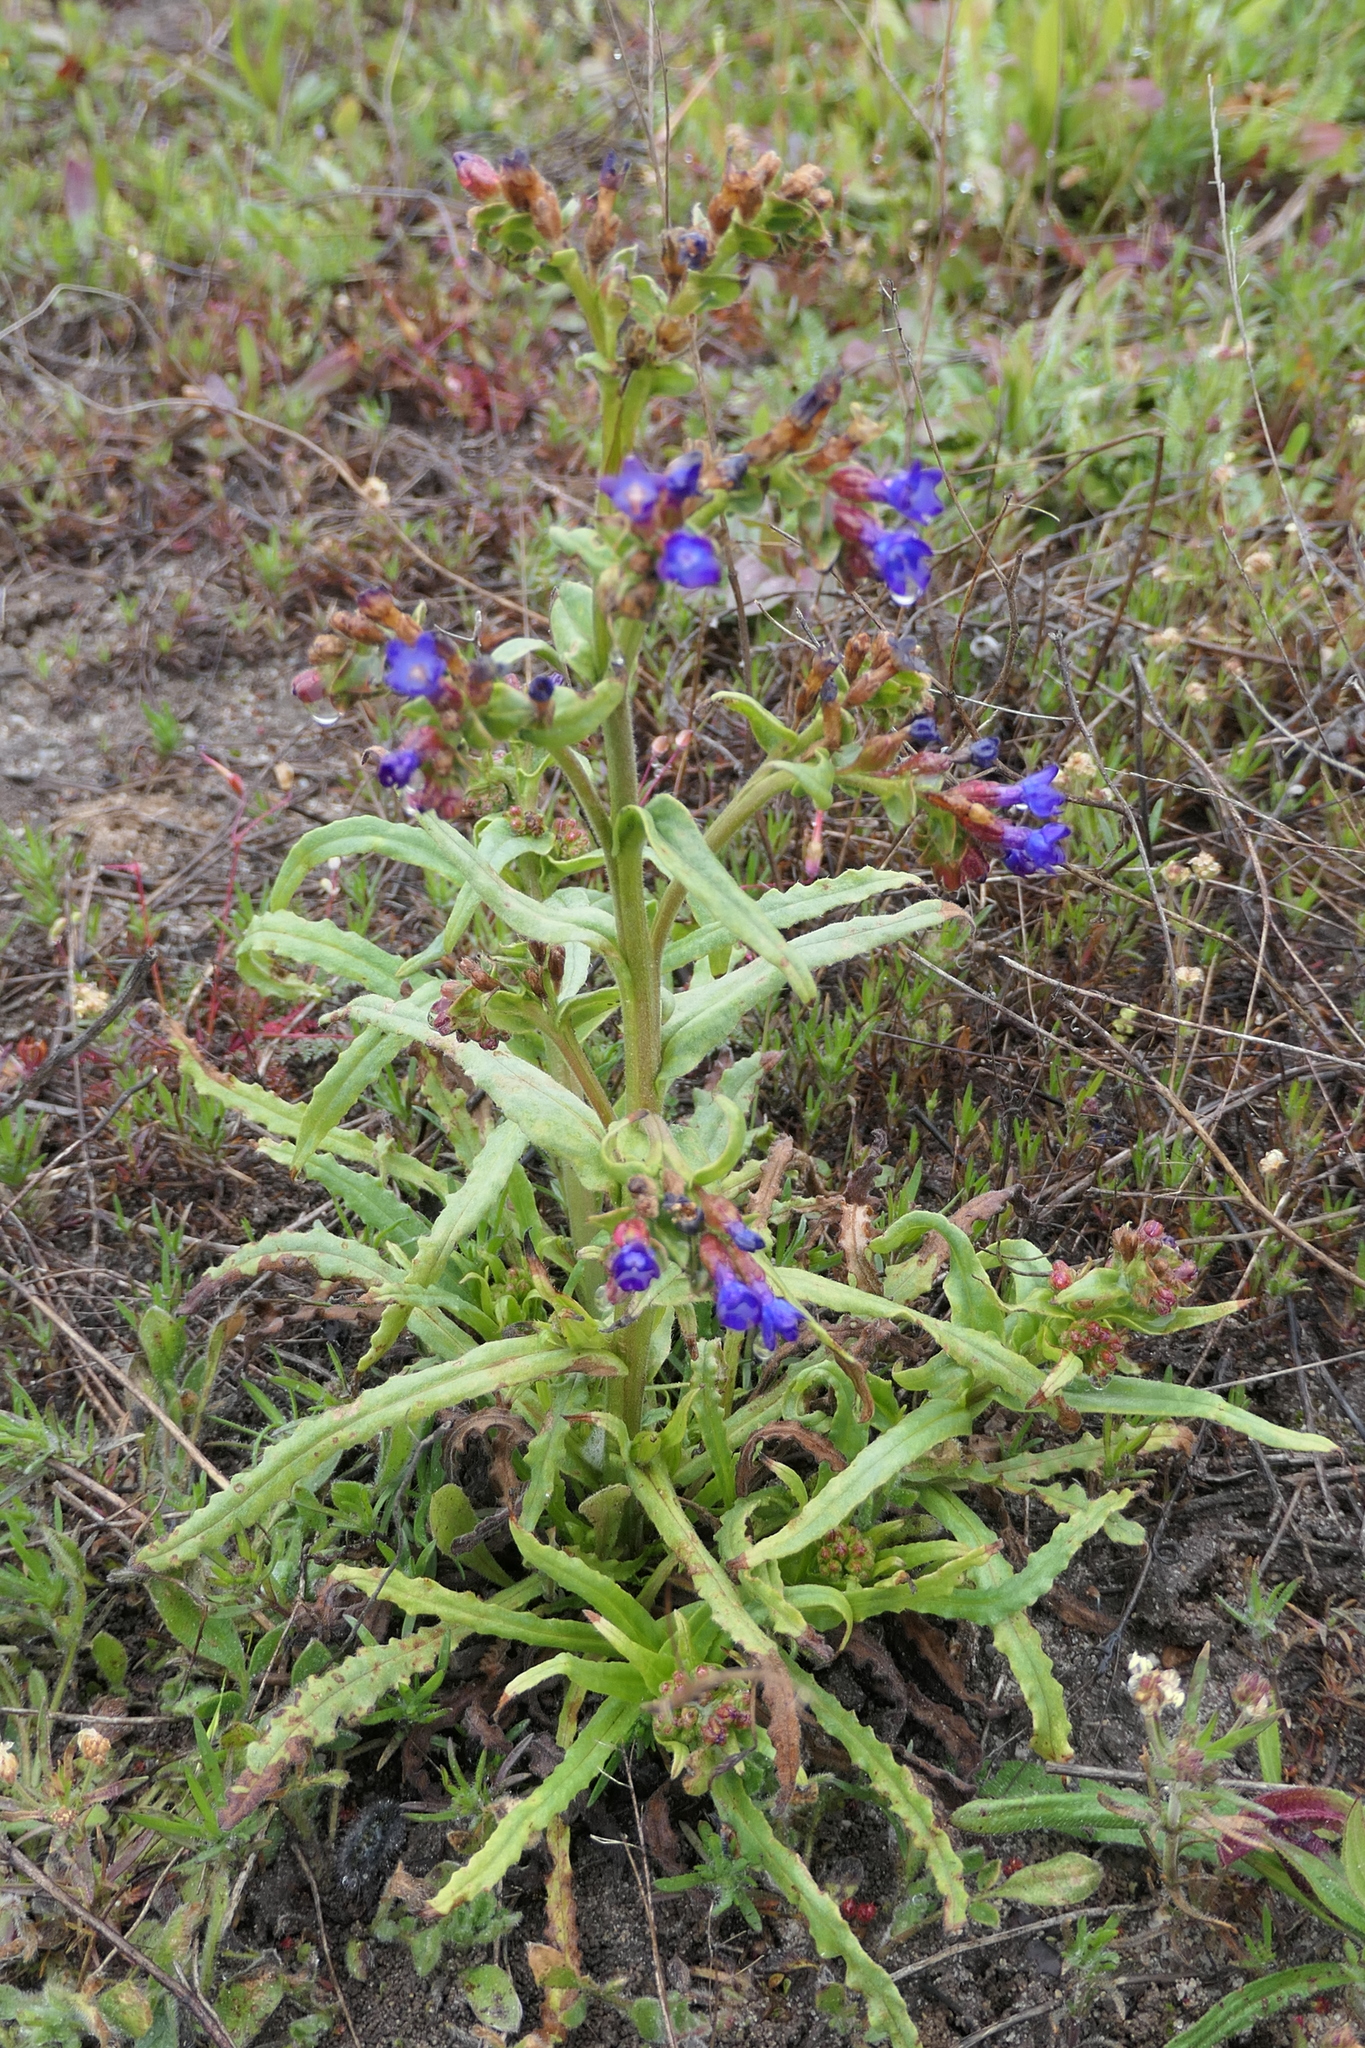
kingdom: Plantae
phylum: Tracheophyta
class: Magnoliopsida
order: Boraginales
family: Boraginaceae
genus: Anchusa
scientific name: Anchusa undulata
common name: Undulate alkanet
